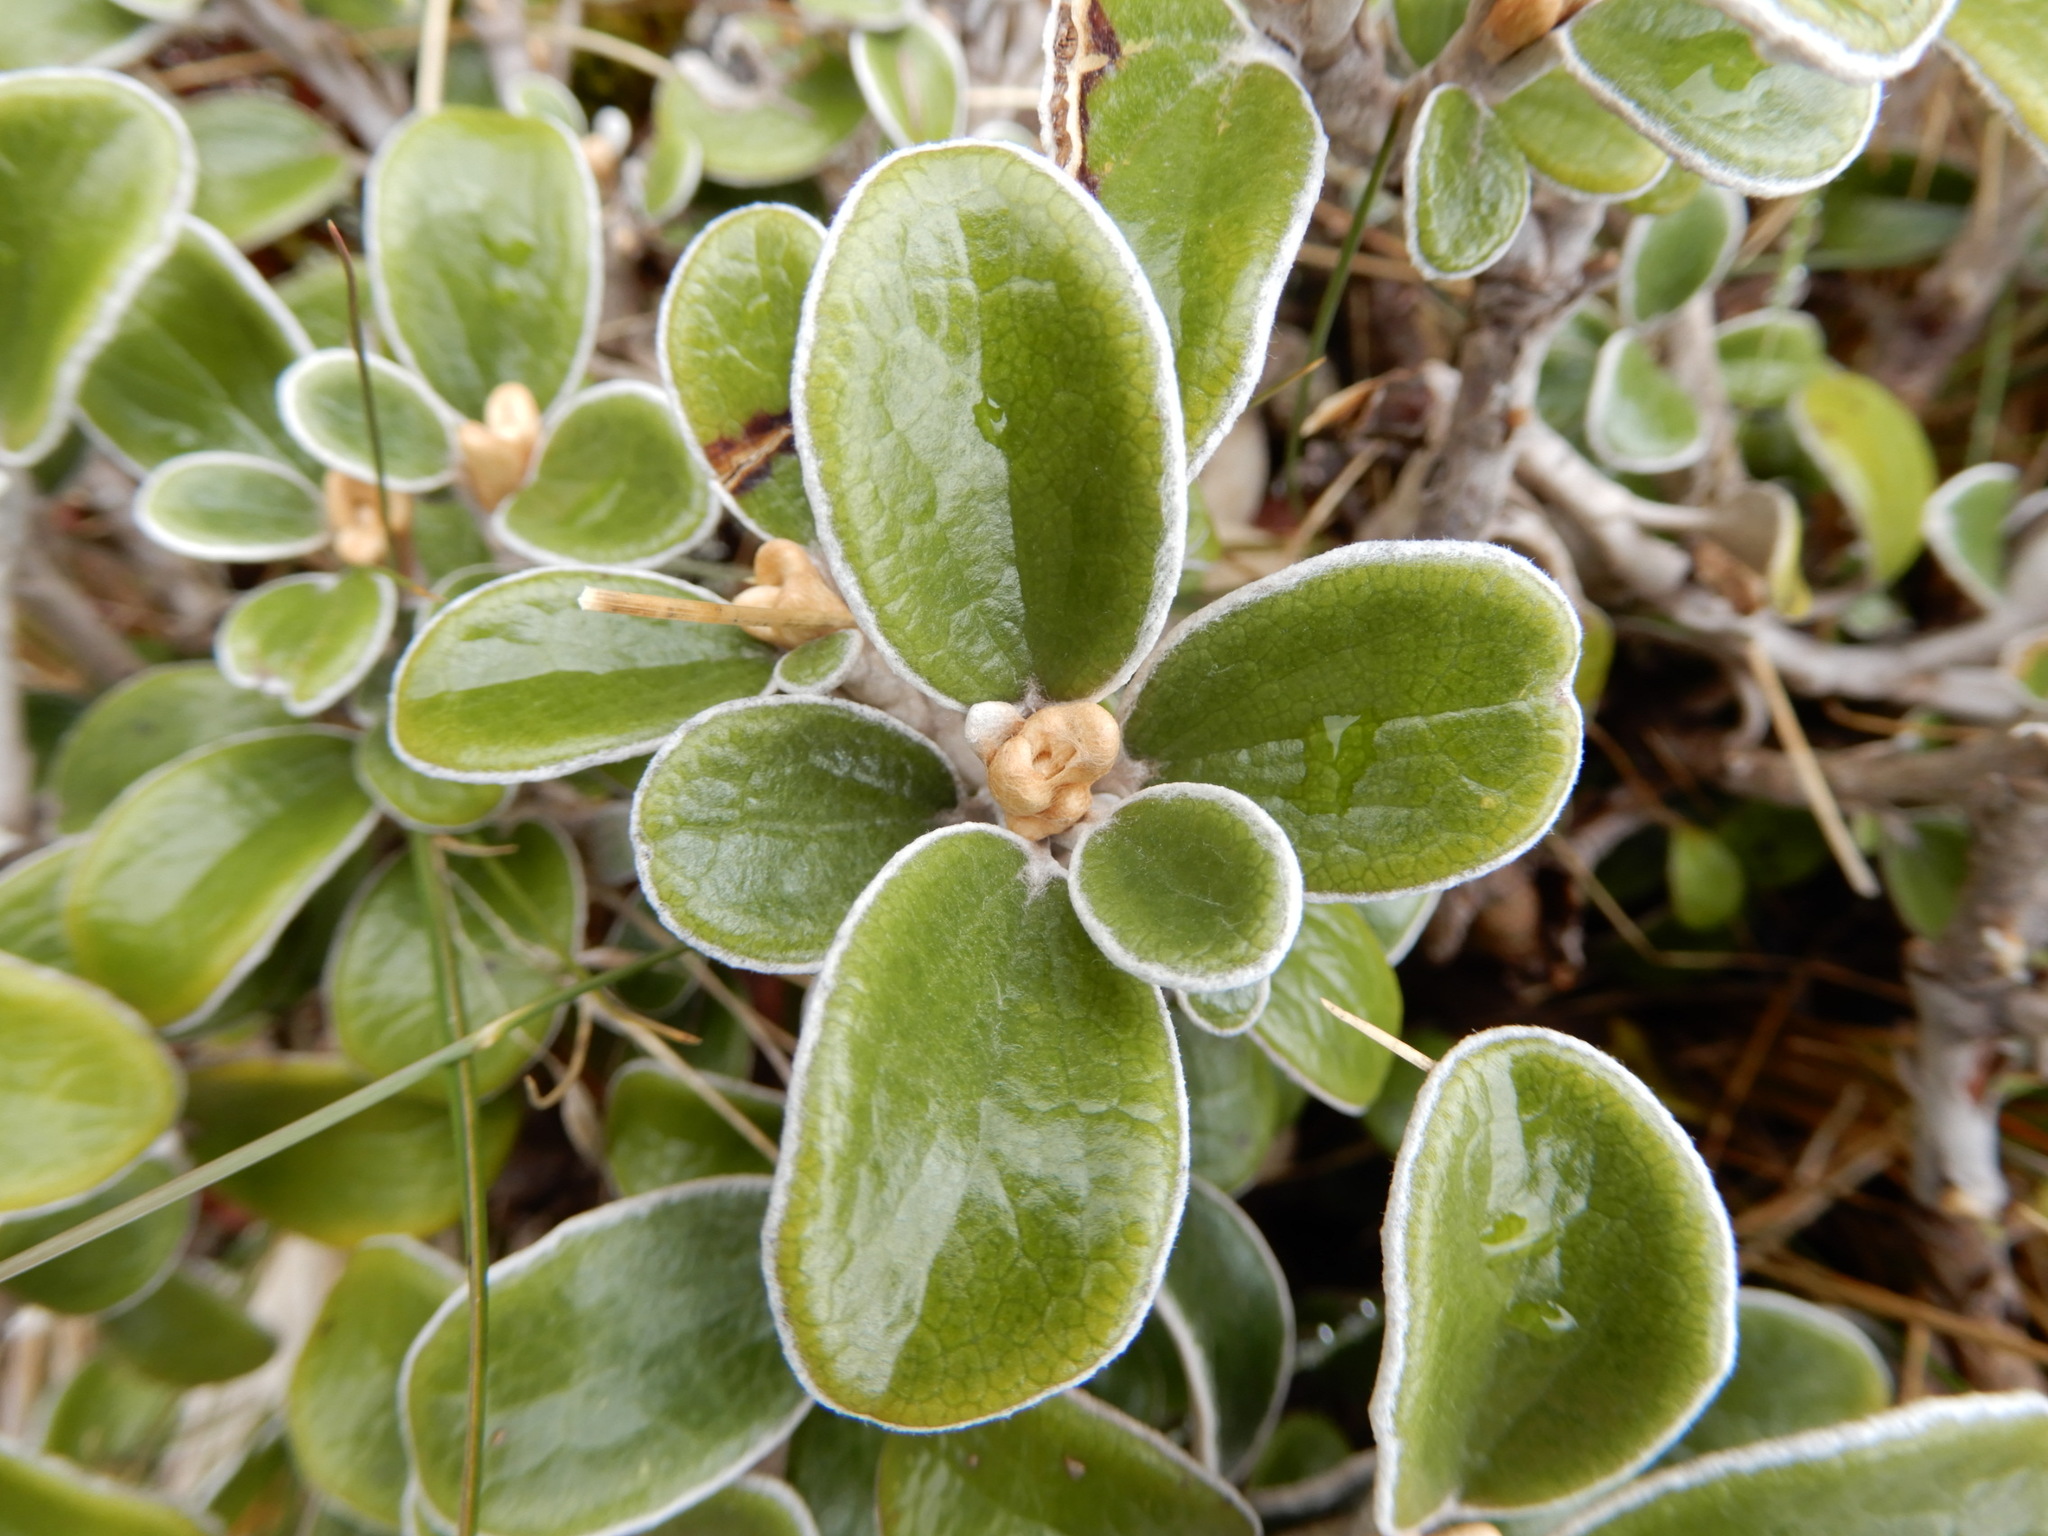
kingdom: Plantae
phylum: Tracheophyta
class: Magnoliopsida
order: Asterales
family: Asteraceae
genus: Brachyglottis
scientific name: Brachyglottis bidwillii
